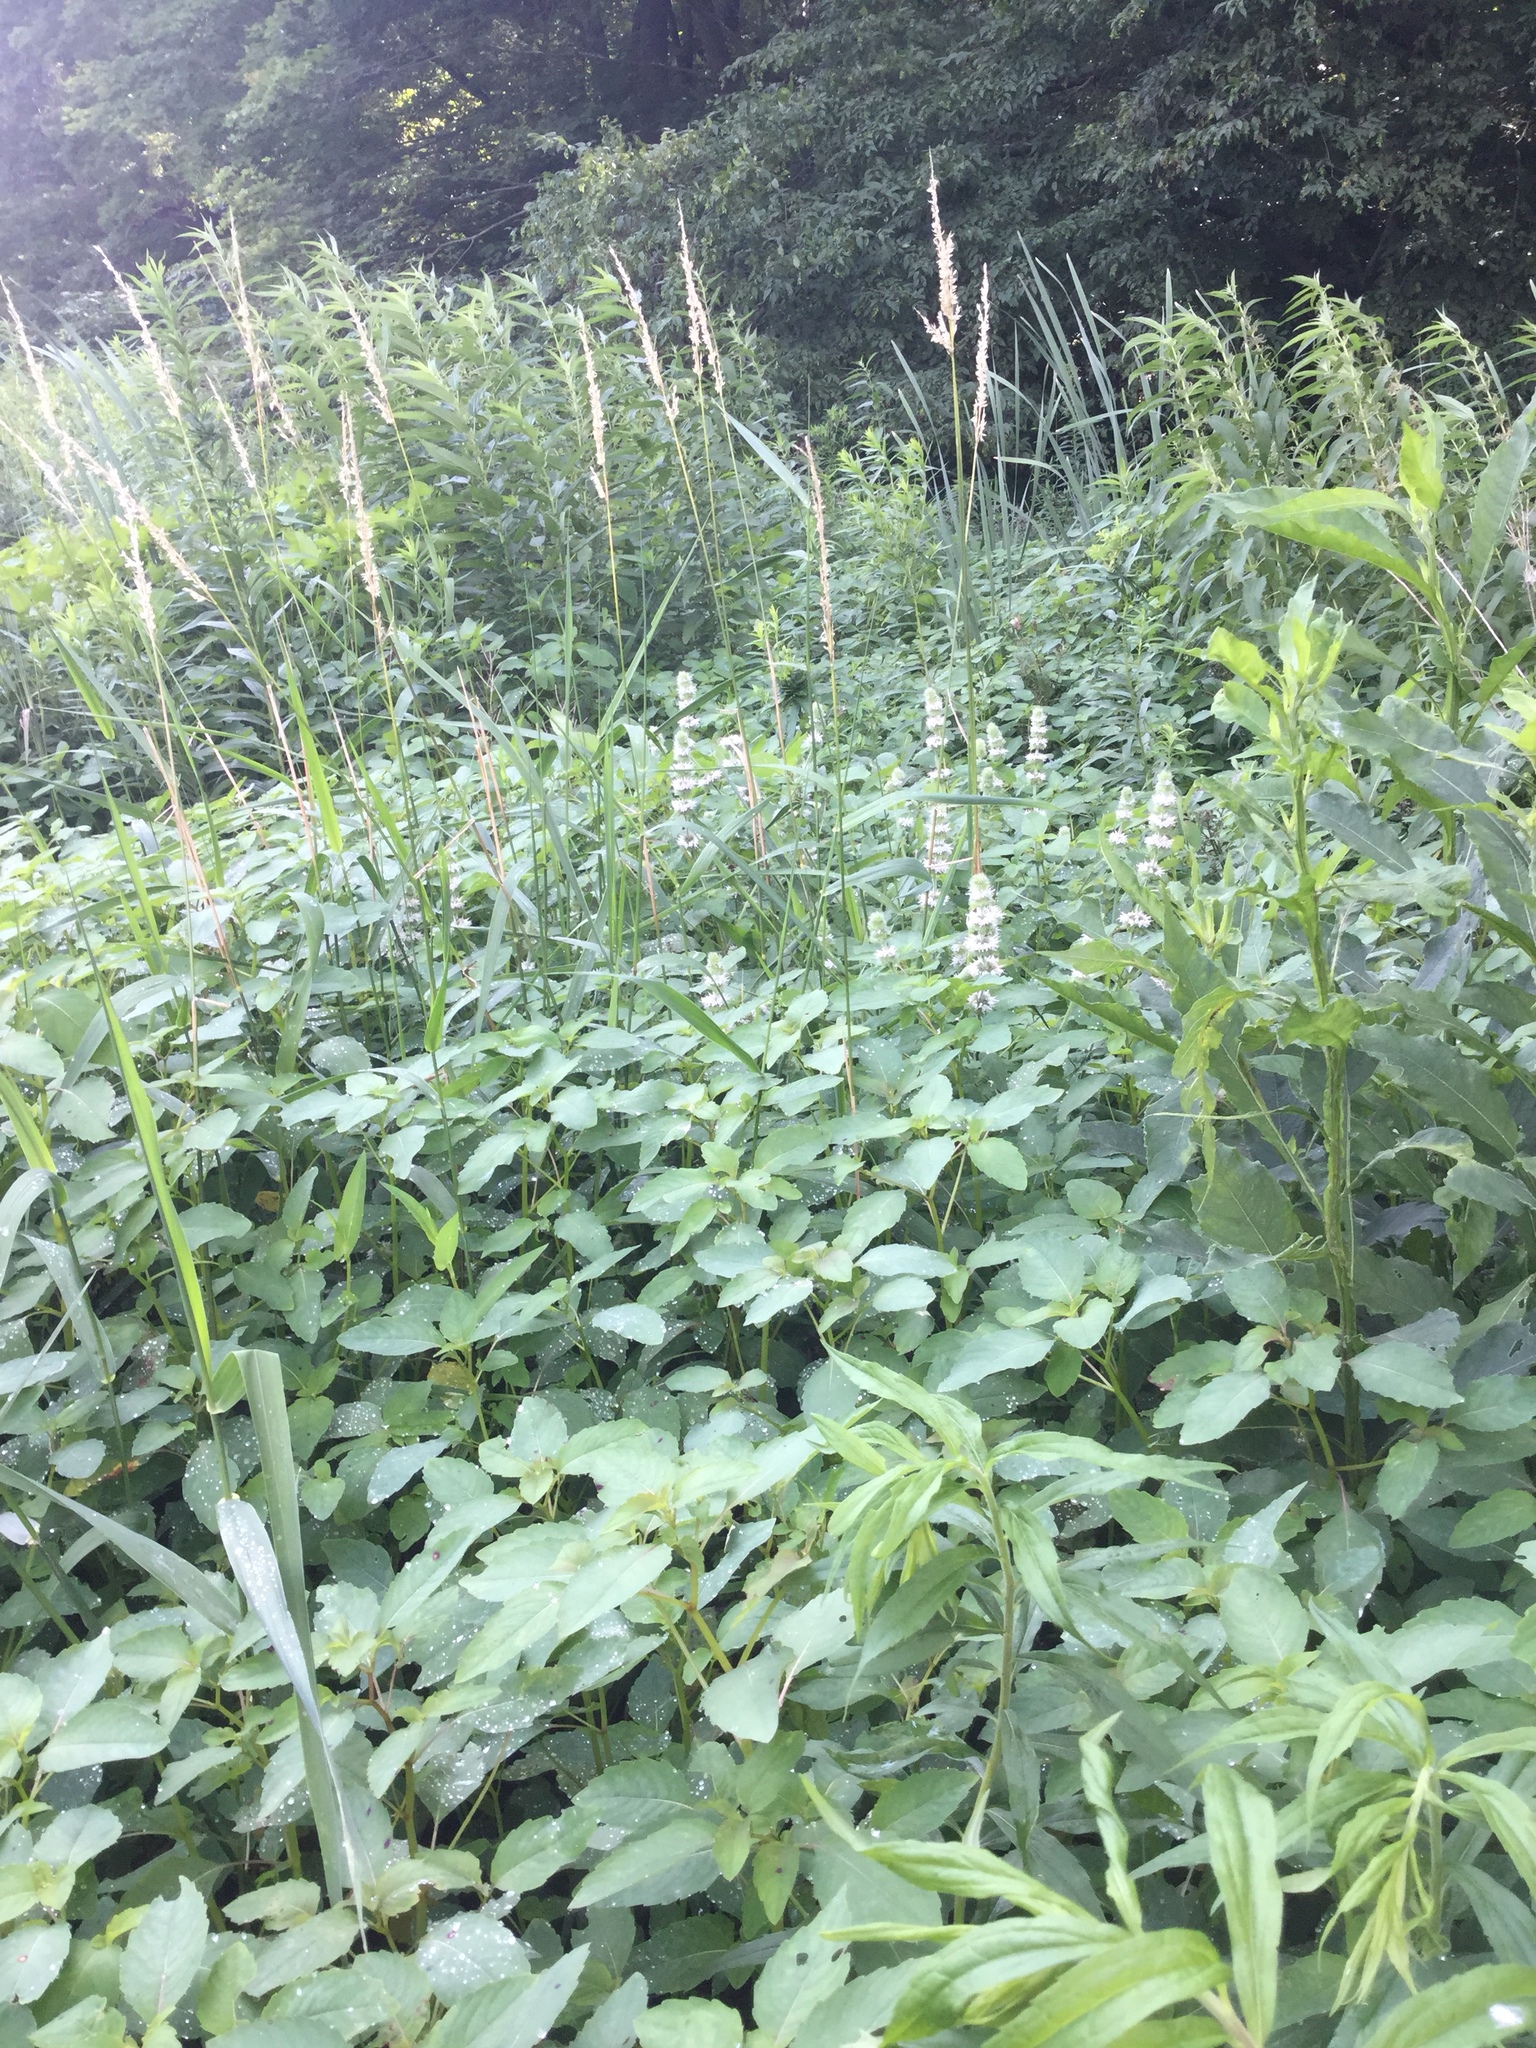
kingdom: Plantae
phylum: Tracheophyta
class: Magnoliopsida
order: Lamiales
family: Lamiaceae
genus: Blephilia
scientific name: Blephilia hirsuta
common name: Hairy blephilia
